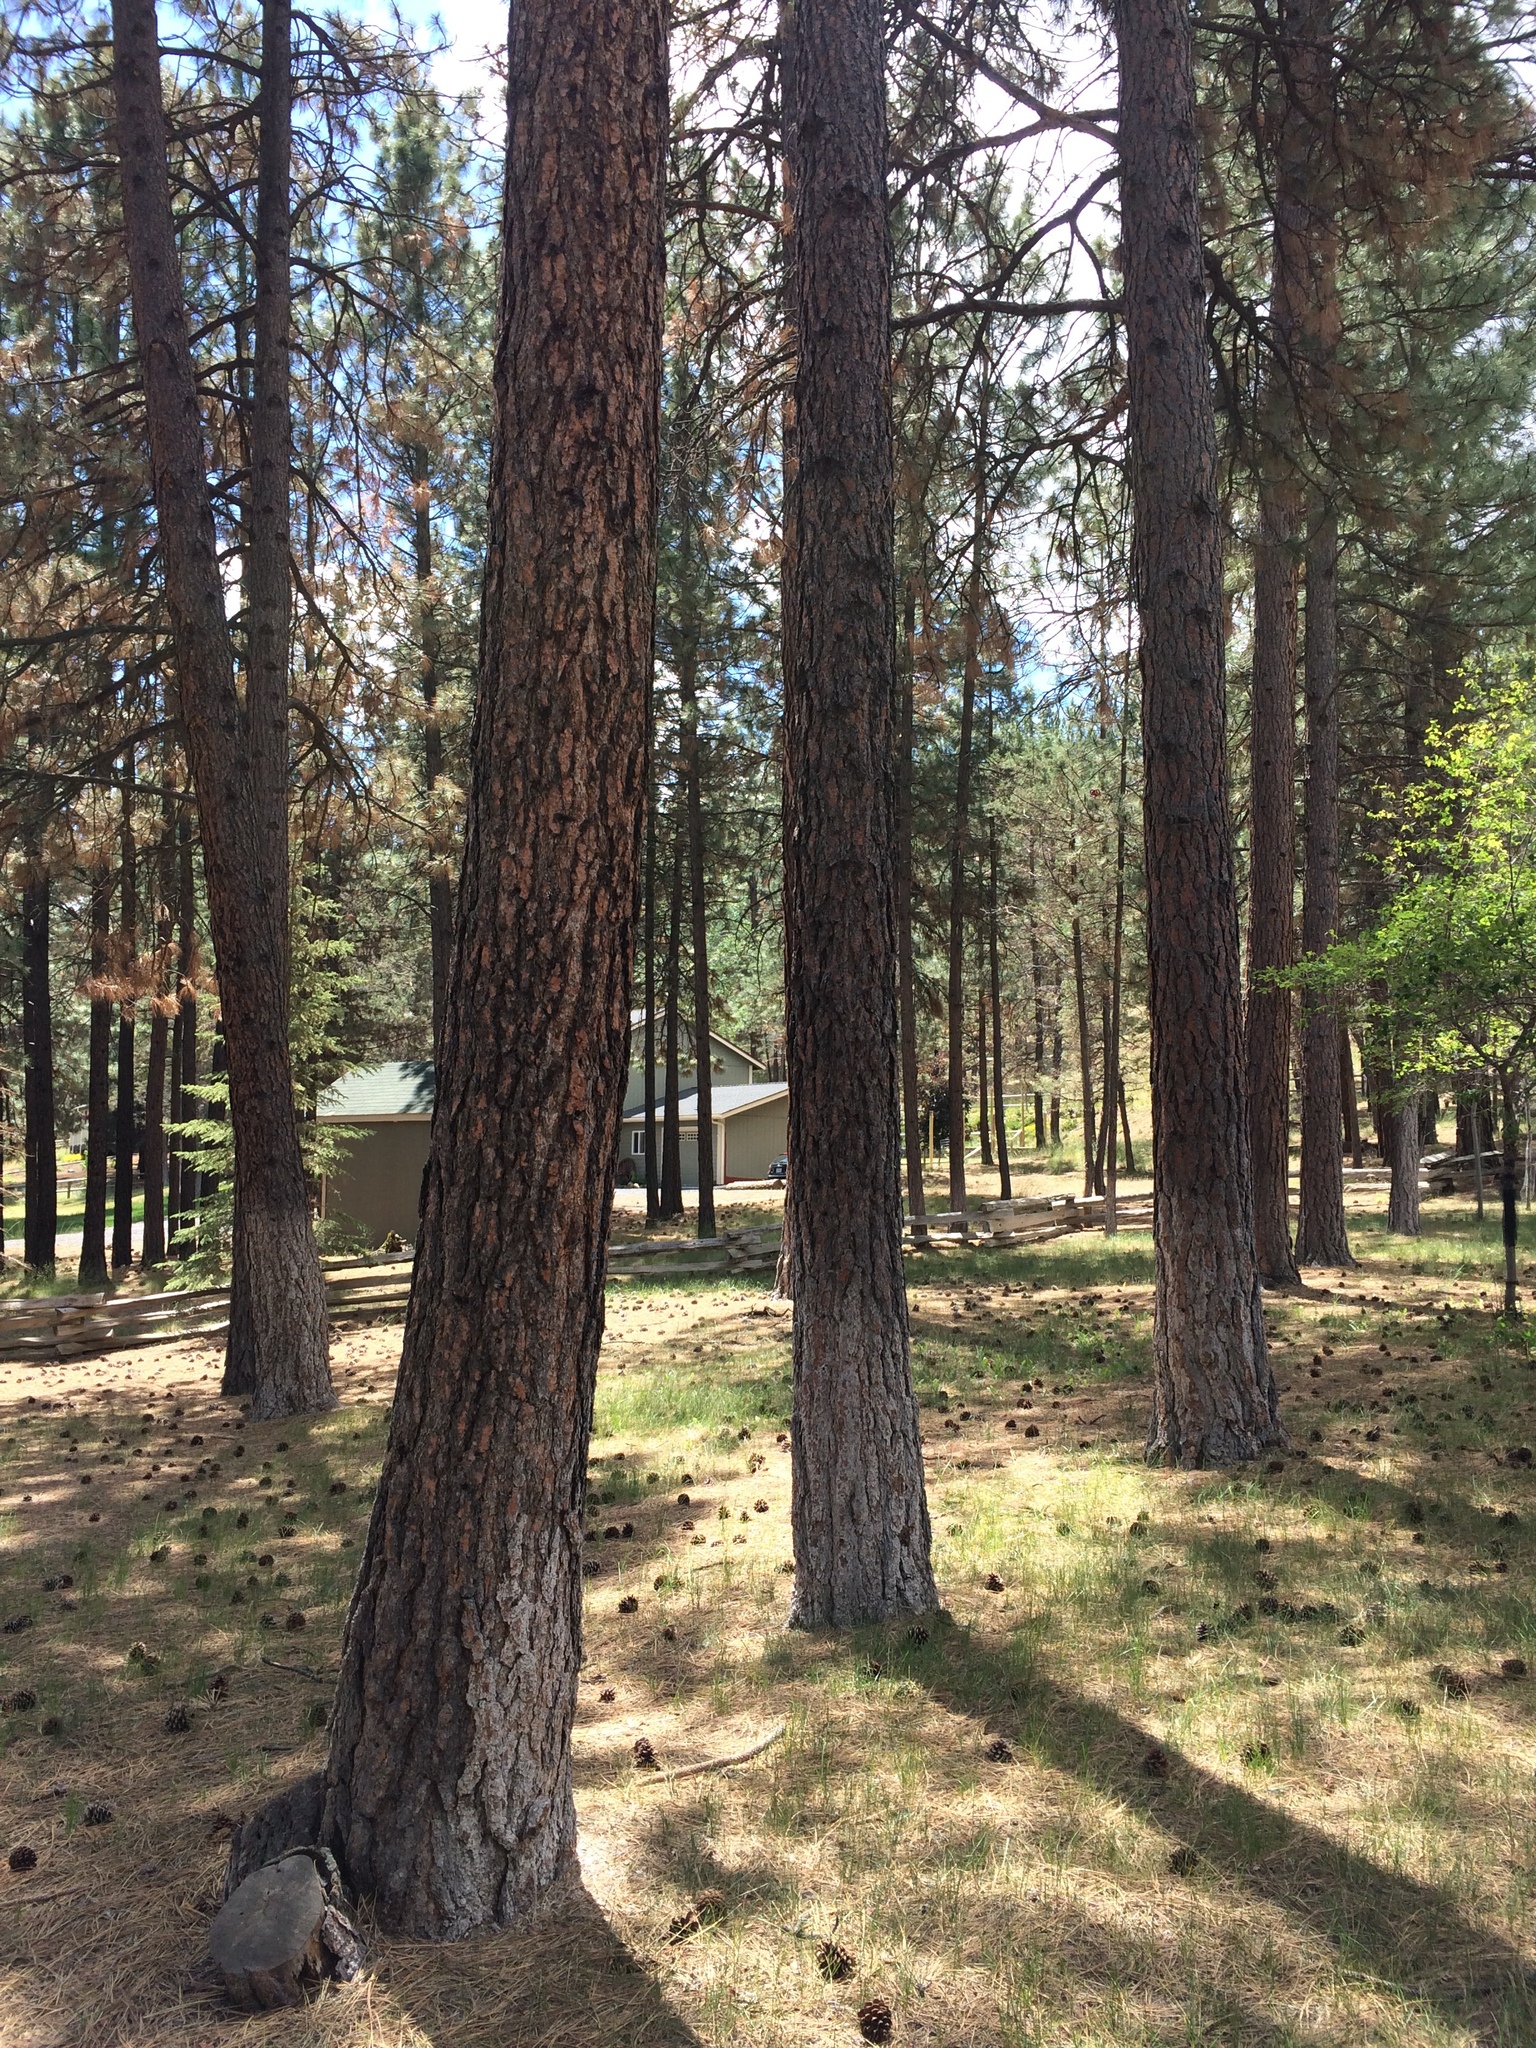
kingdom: Plantae
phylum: Tracheophyta
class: Pinopsida
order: Pinales
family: Pinaceae
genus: Pinus
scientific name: Pinus ponderosa
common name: Western yellow-pine
